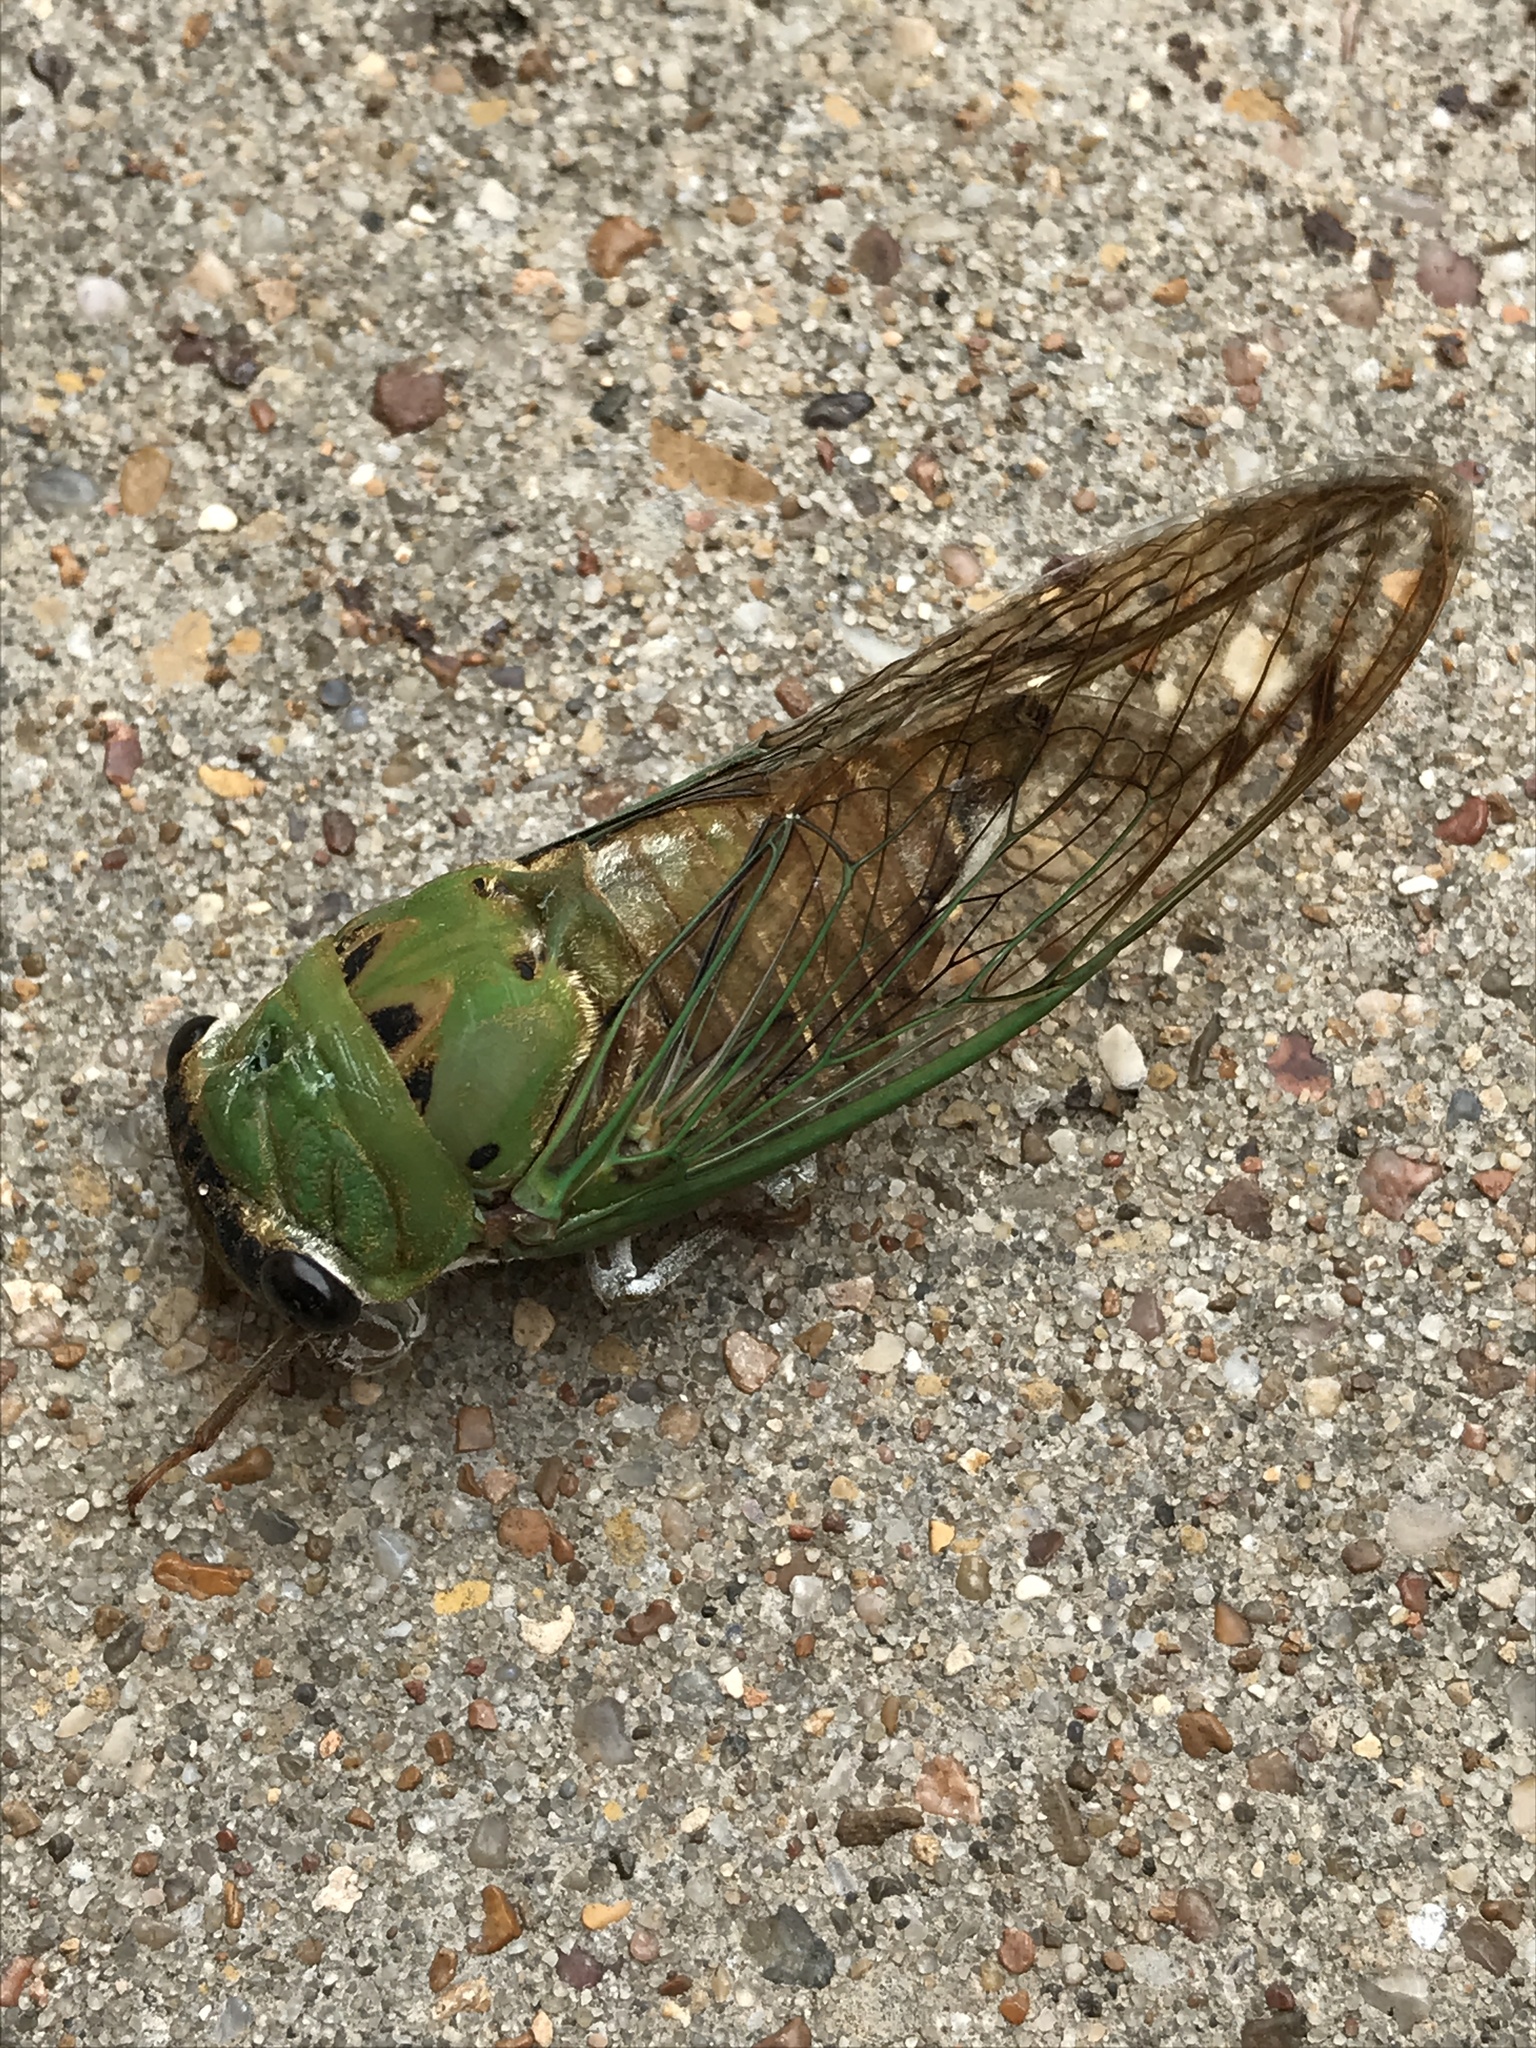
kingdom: Animalia
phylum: Arthropoda
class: Insecta
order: Hemiptera
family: Cicadidae
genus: Neotibicen
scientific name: Neotibicen superbus
